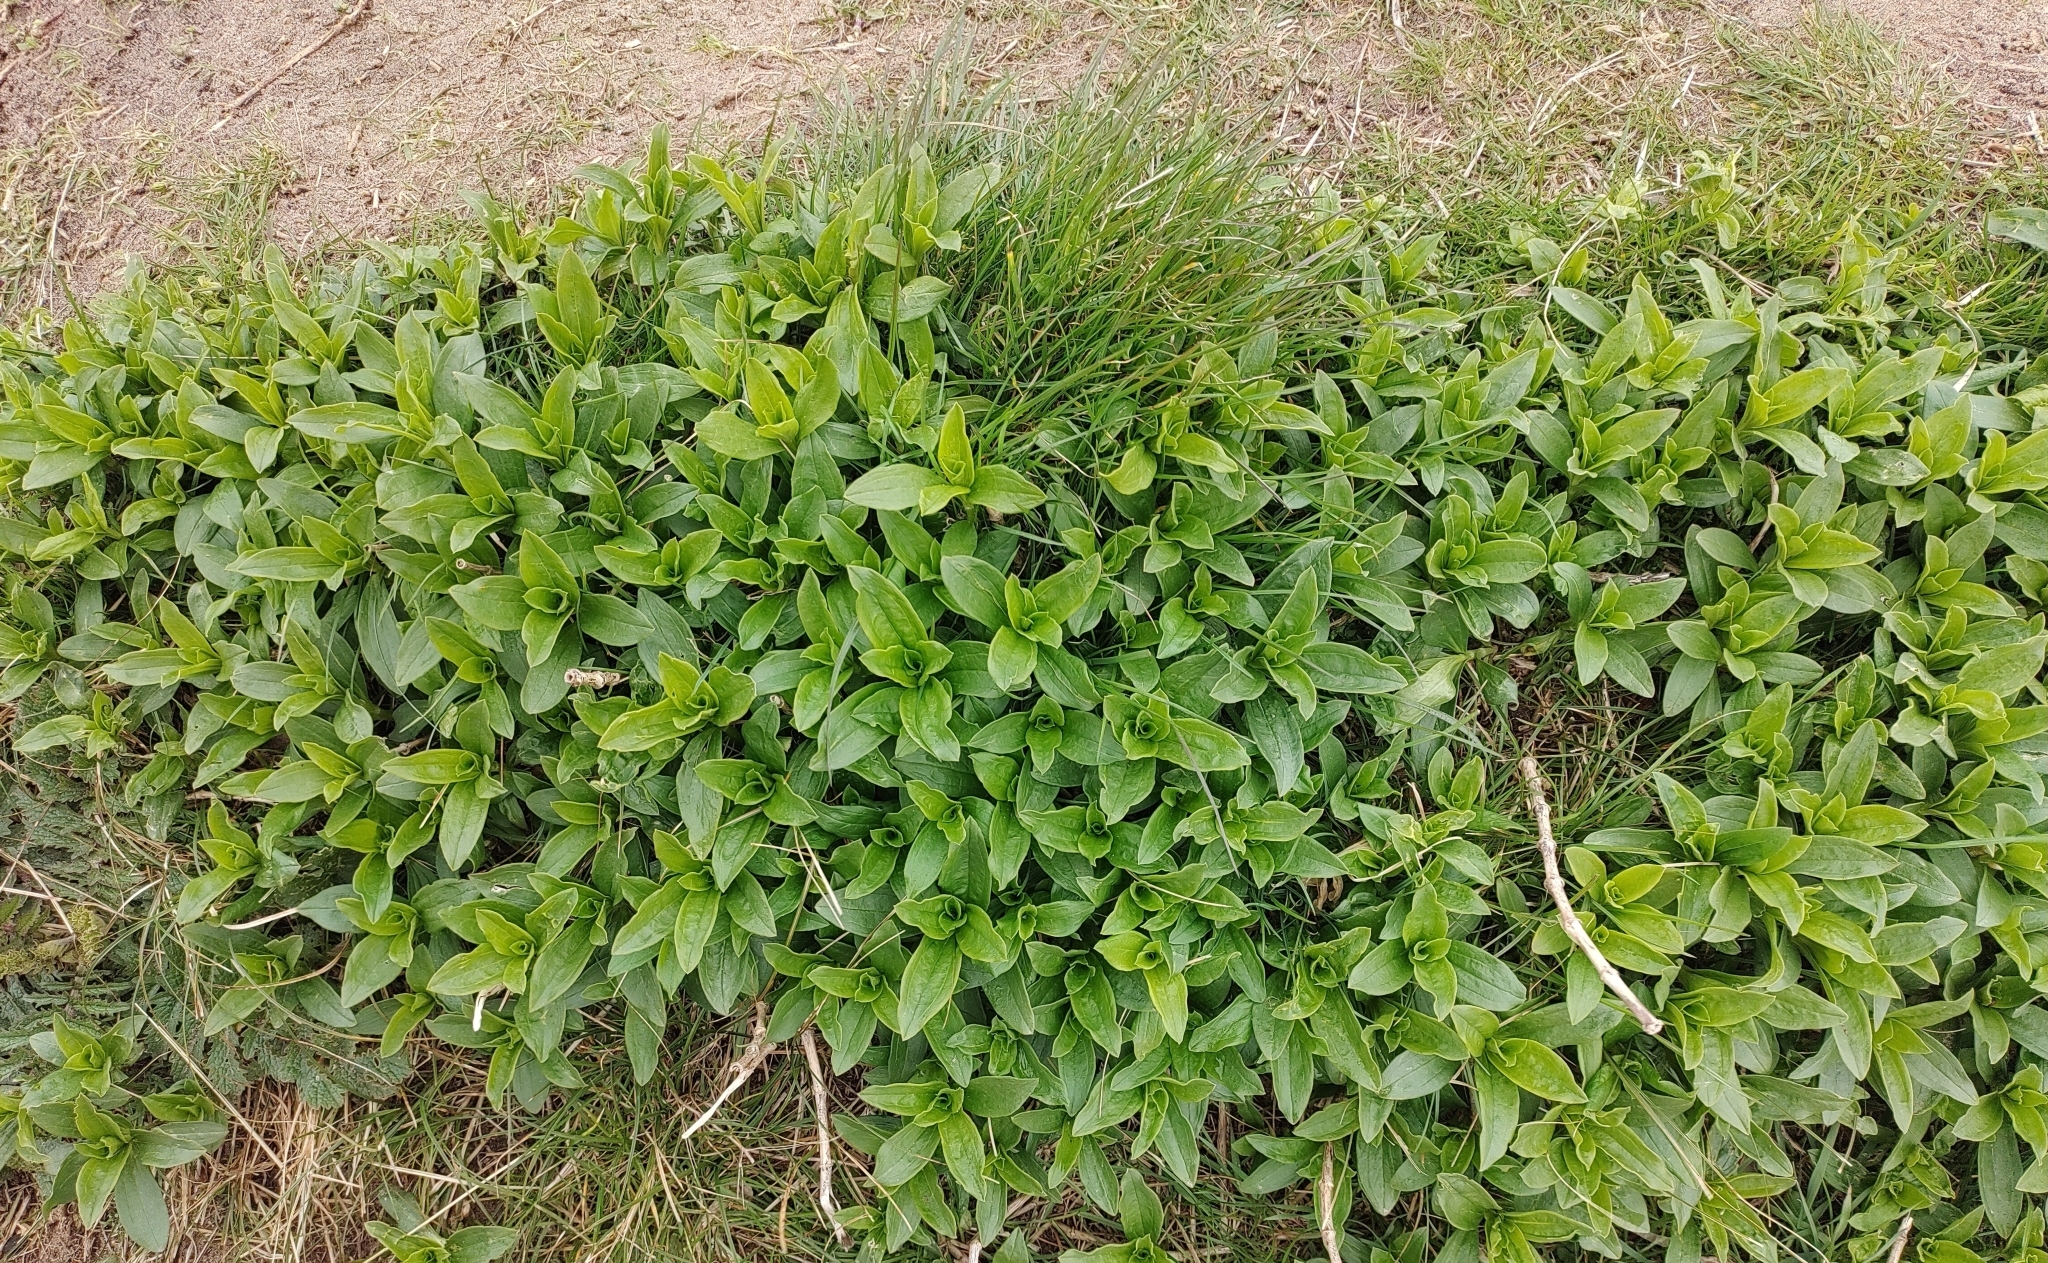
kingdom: Plantae
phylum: Tracheophyta
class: Magnoliopsida
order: Caryophyllales
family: Caryophyllaceae
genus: Saponaria
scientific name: Saponaria officinalis
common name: Soapwort
